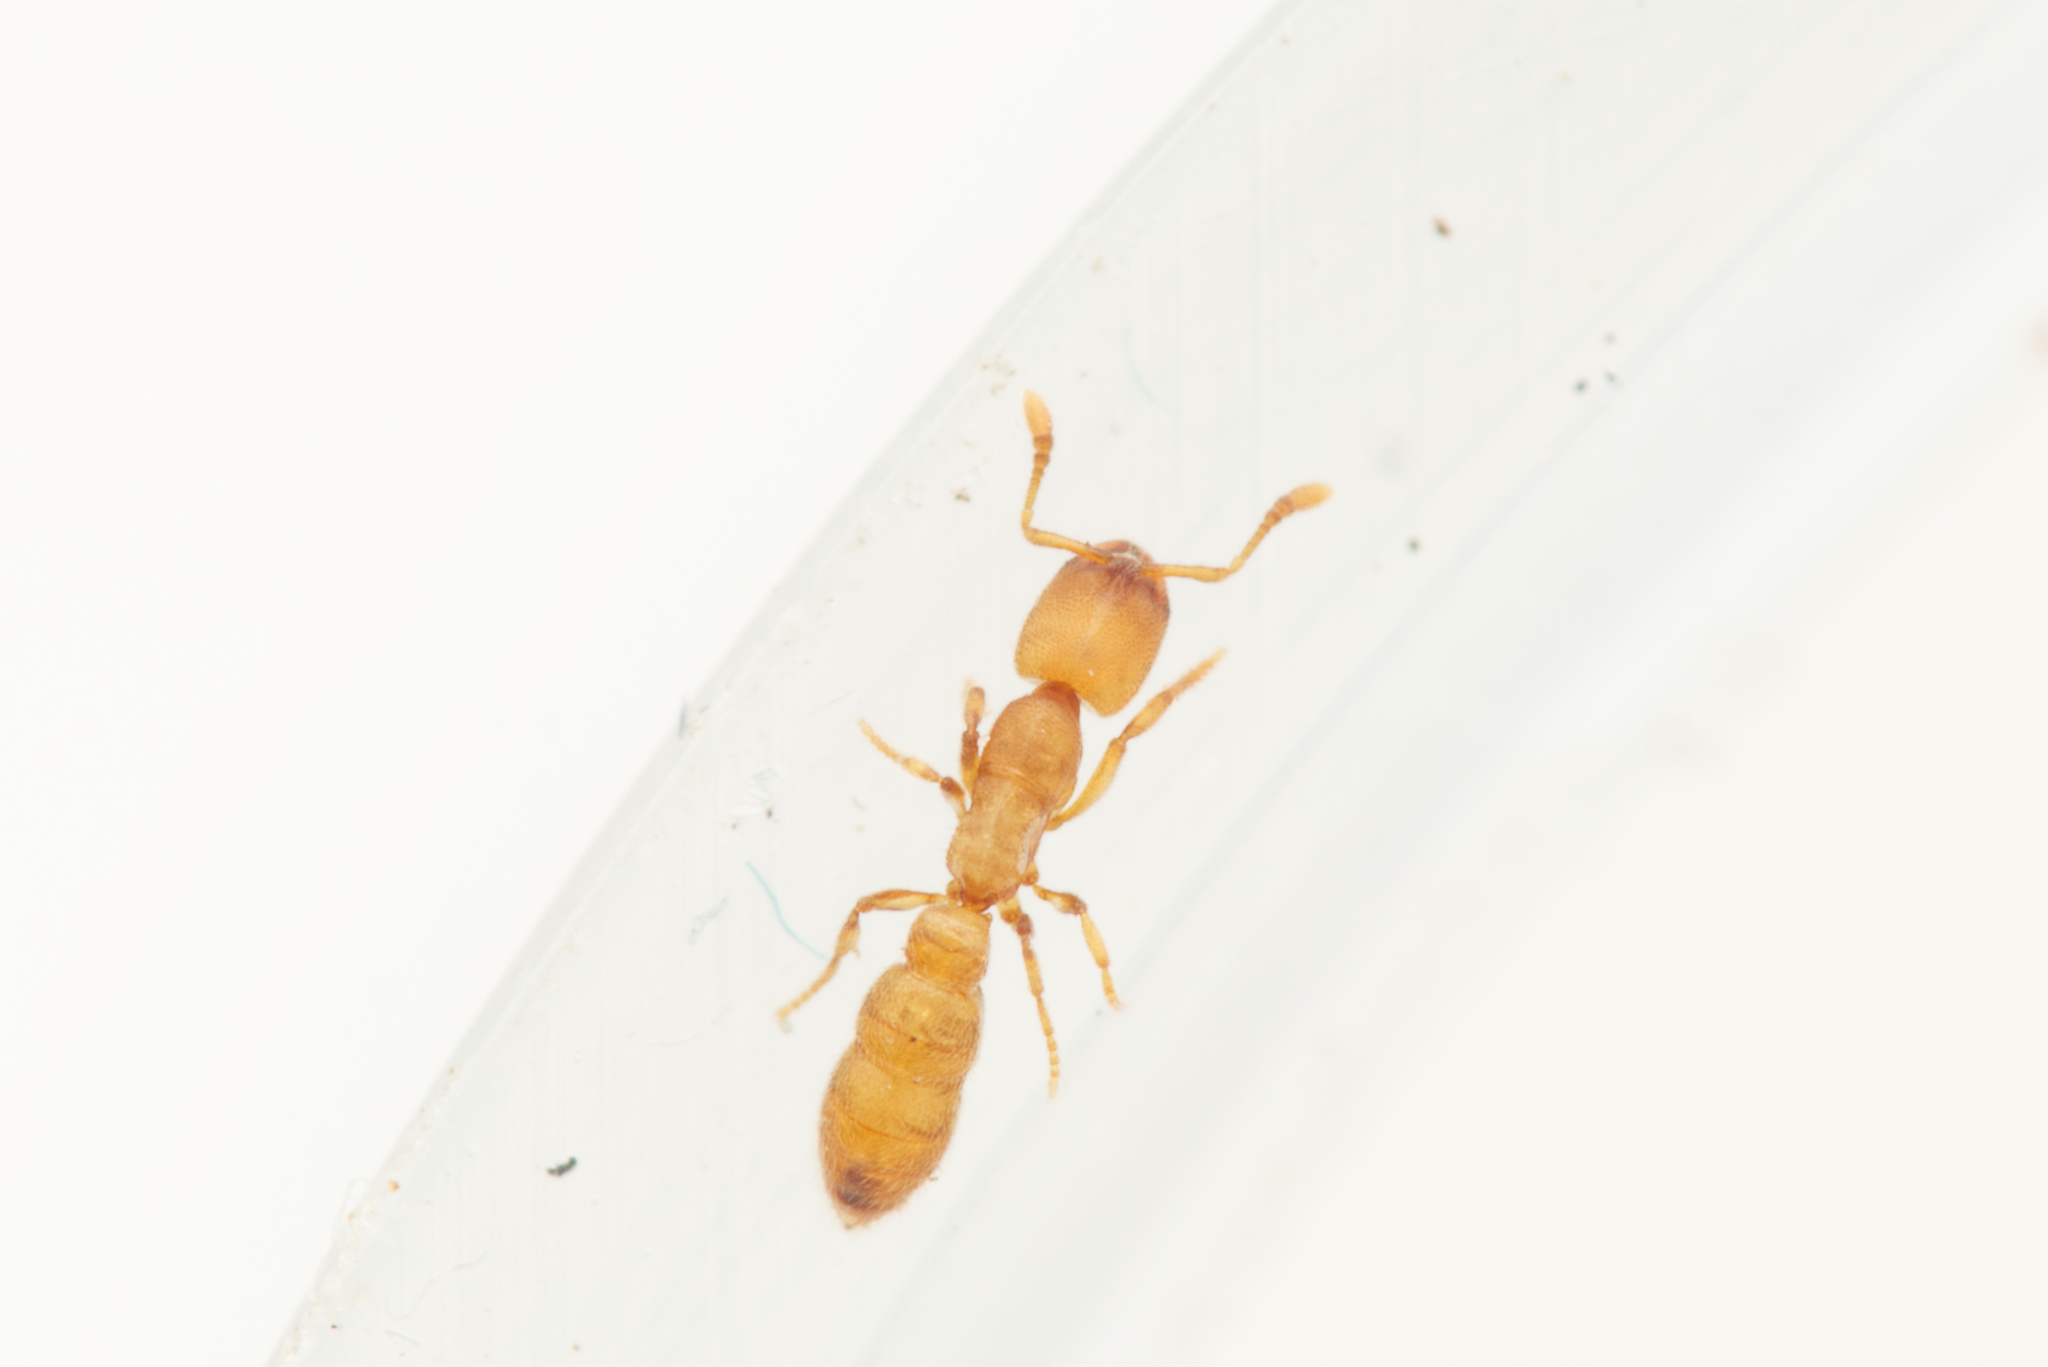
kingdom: Animalia
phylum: Arthropoda
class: Insecta
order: Hymenoptera
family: Formicidae
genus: Prionopelta
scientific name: Prionopelta robynmae
